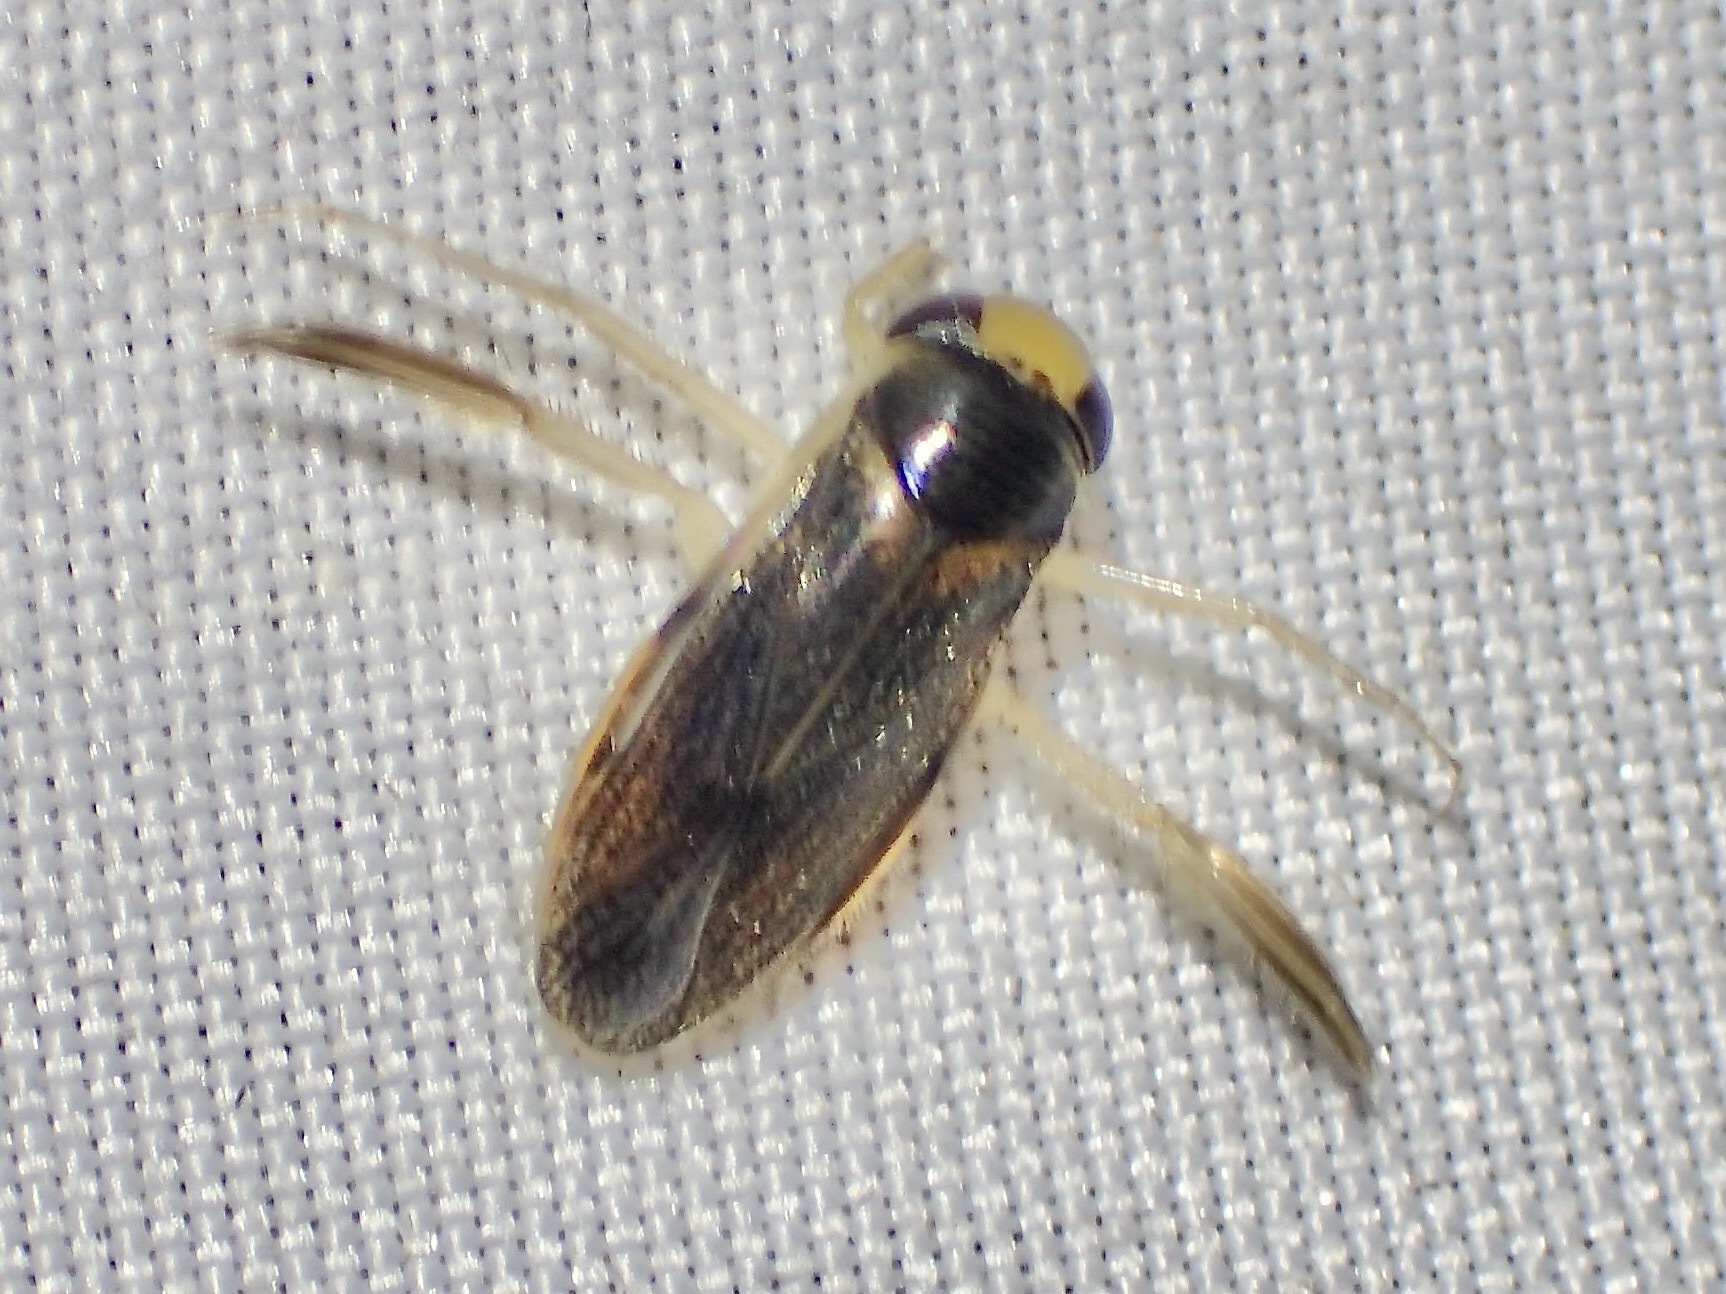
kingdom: Animalia
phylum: Arthropoda
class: Insecta
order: Hemiptera
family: Corixidae
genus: Corisella
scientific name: Corisella
